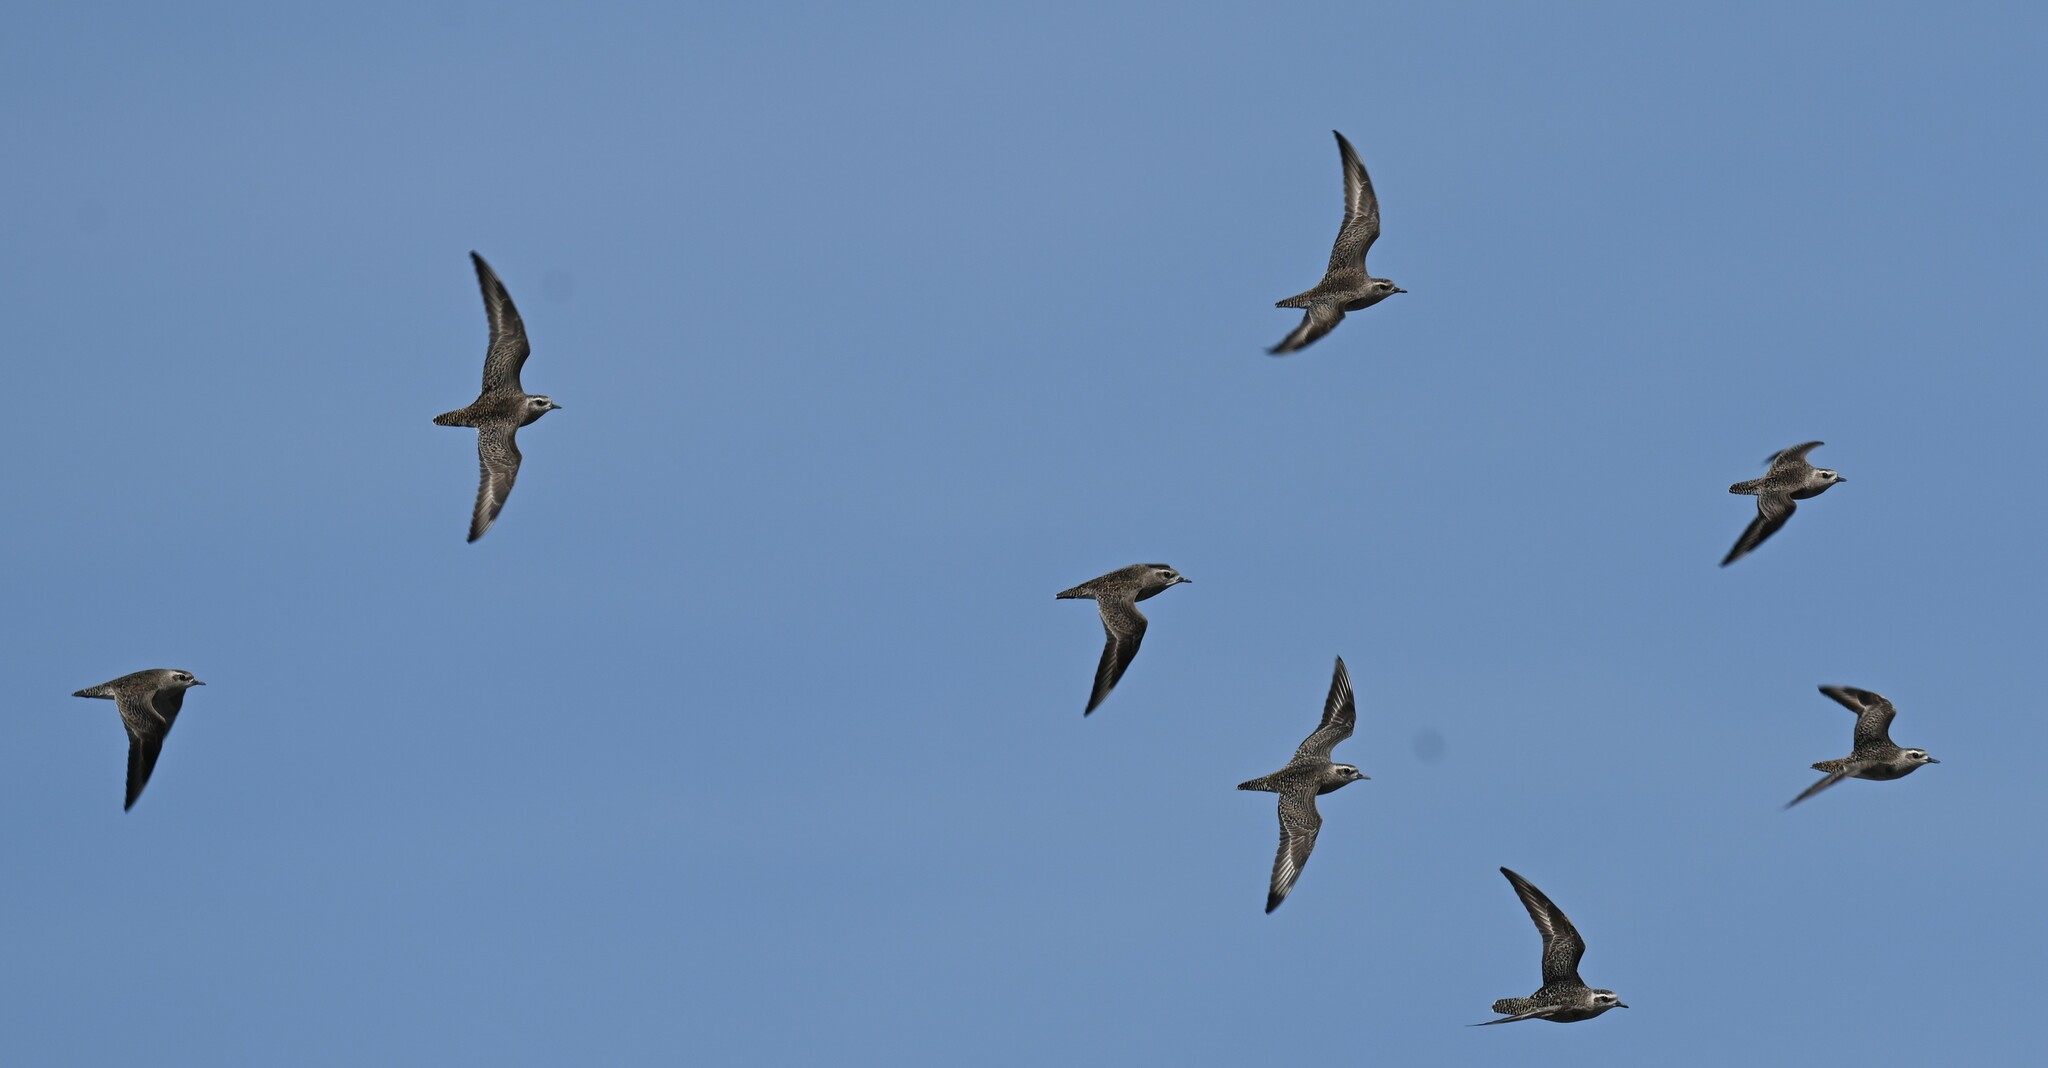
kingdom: Animalia
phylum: Chordata
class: Aves
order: Charadriiformes
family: Charadriidae
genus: Pluvialis
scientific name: Pluvialis dominica
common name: American golden plover
